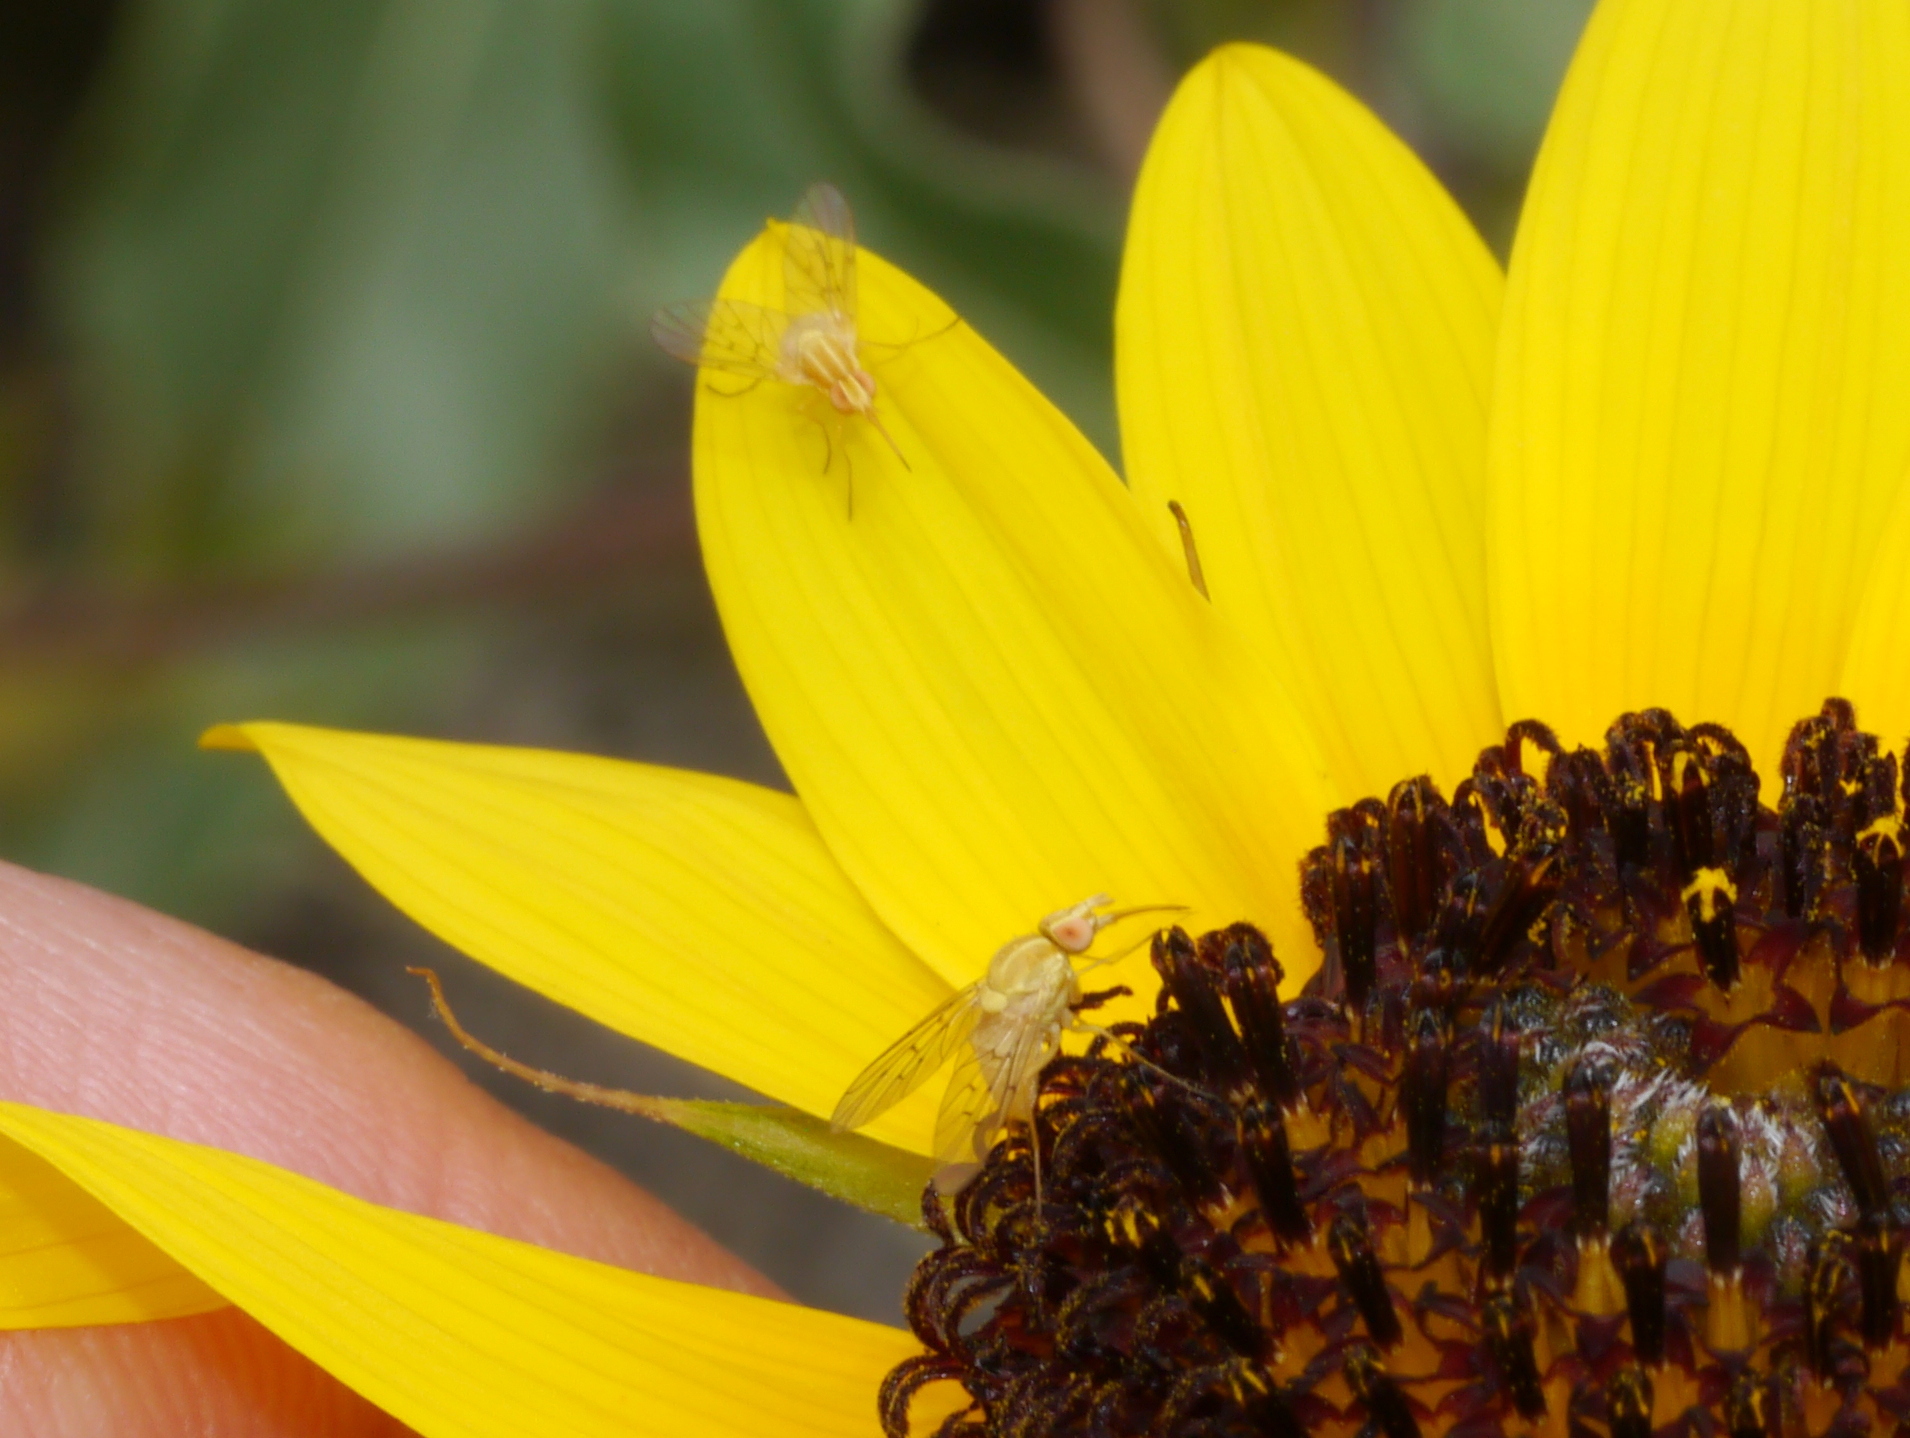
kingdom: Animalia
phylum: Arthropoda
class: Insecta
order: Diptera
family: Bombyliidae
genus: Poecilognathus
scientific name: Poecilognathus unimaculatus
